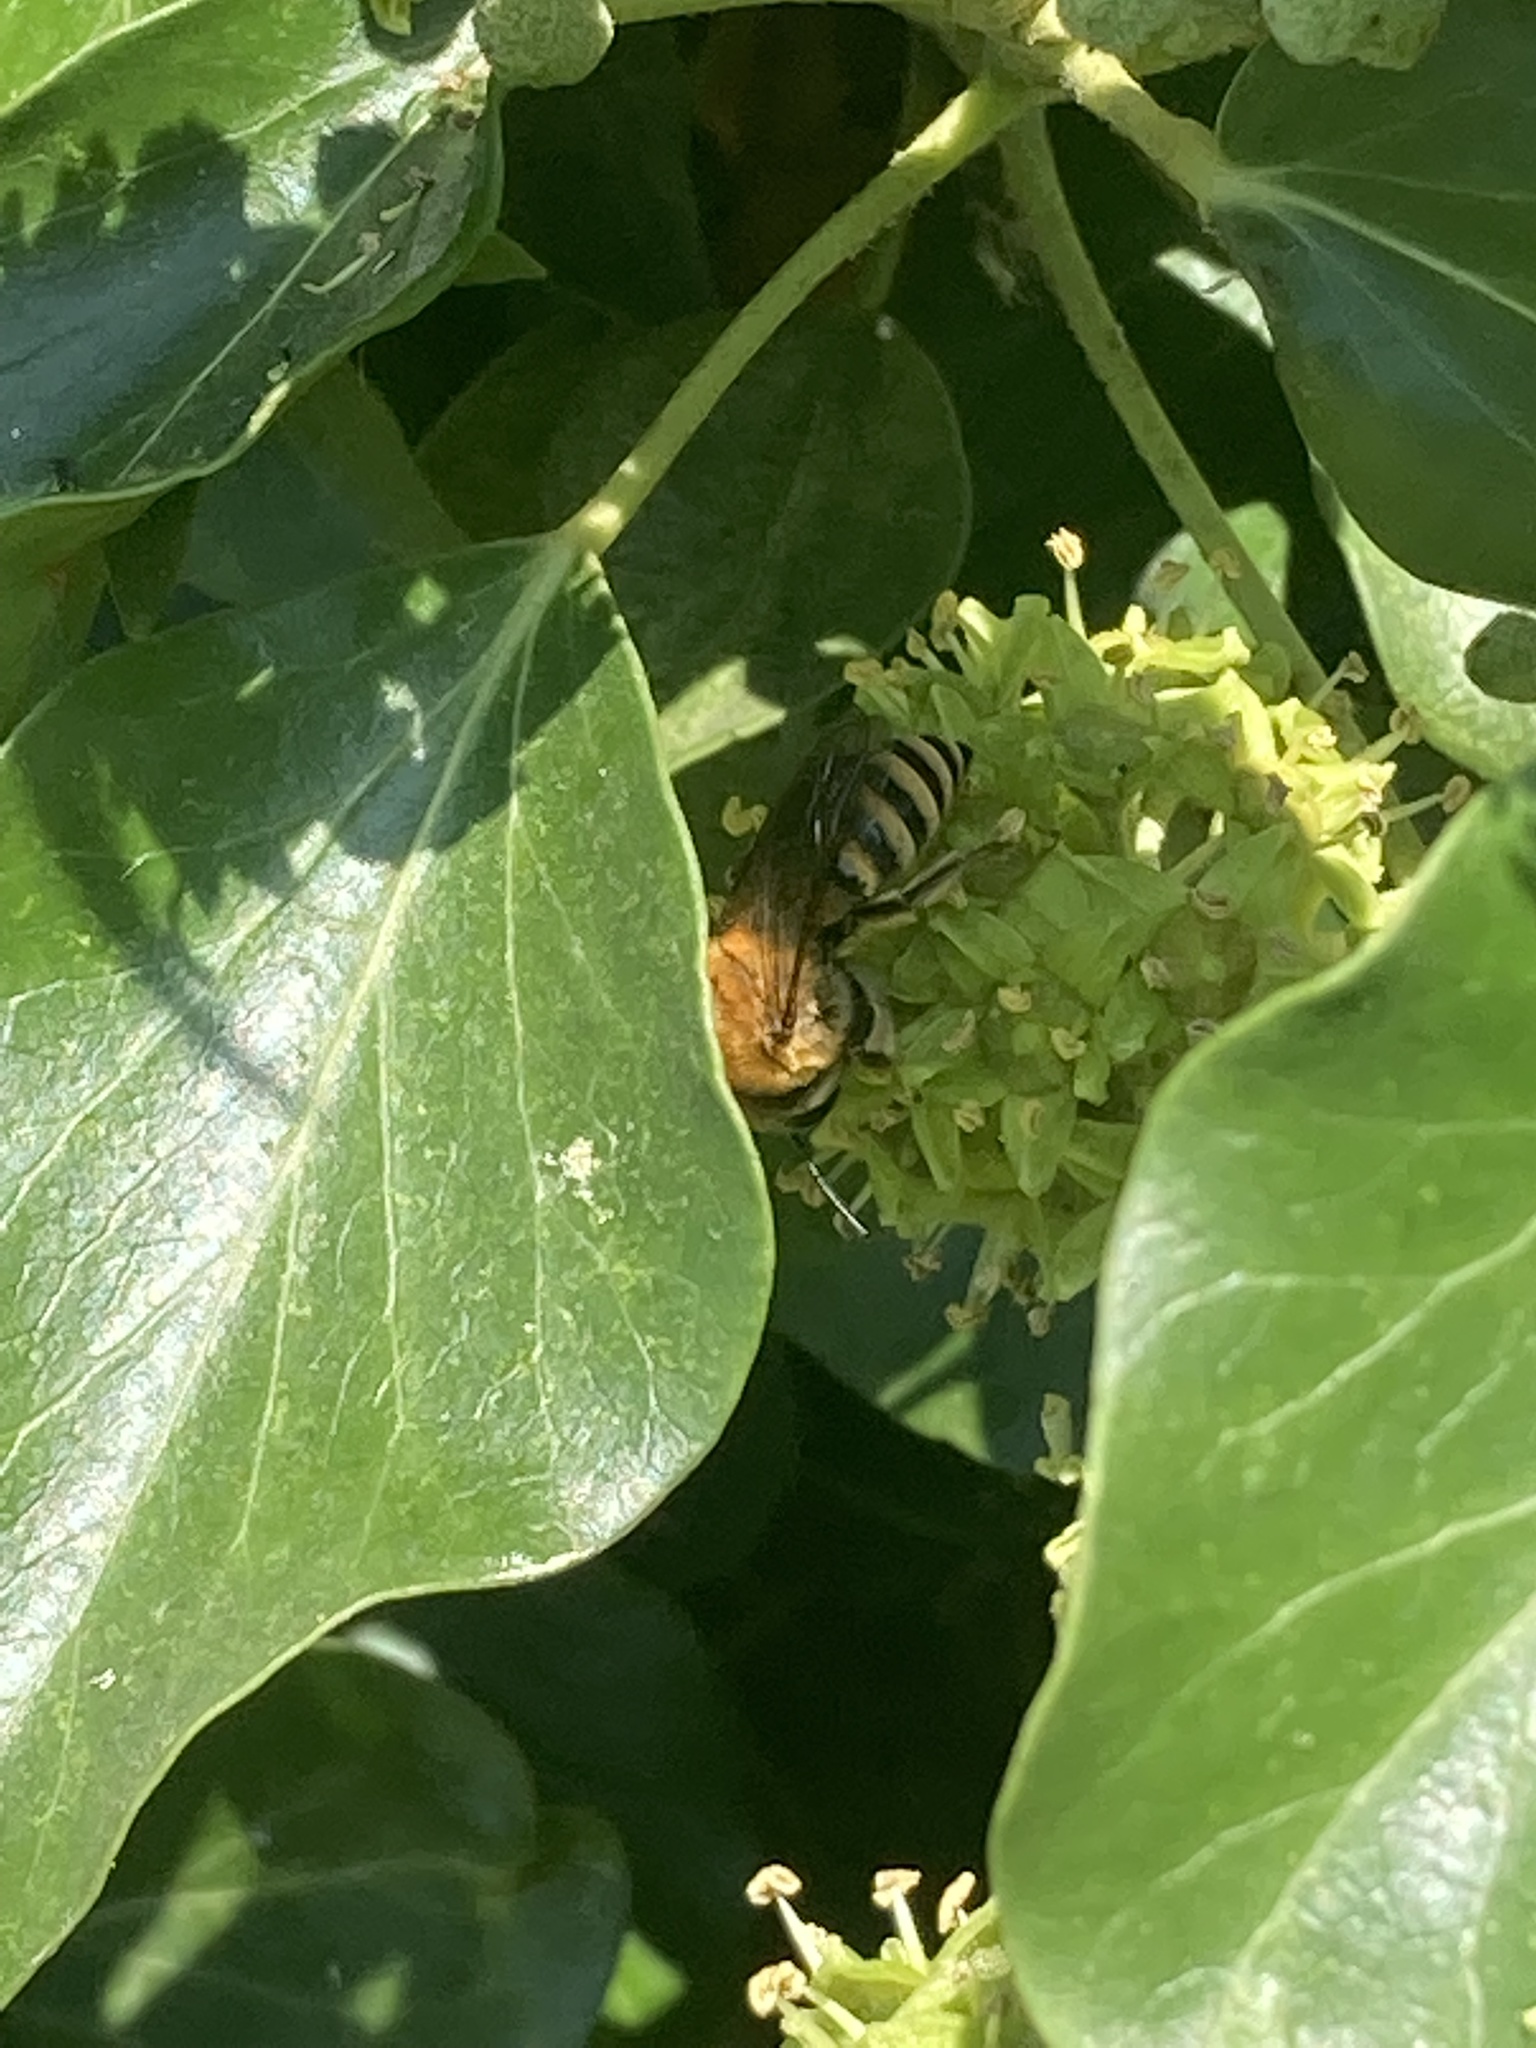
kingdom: Animalia
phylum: Arthropoda
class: Insecta
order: Hymenoptera
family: Colletidae
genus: Colletes
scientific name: Colletes hederae
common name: Ivy bee
